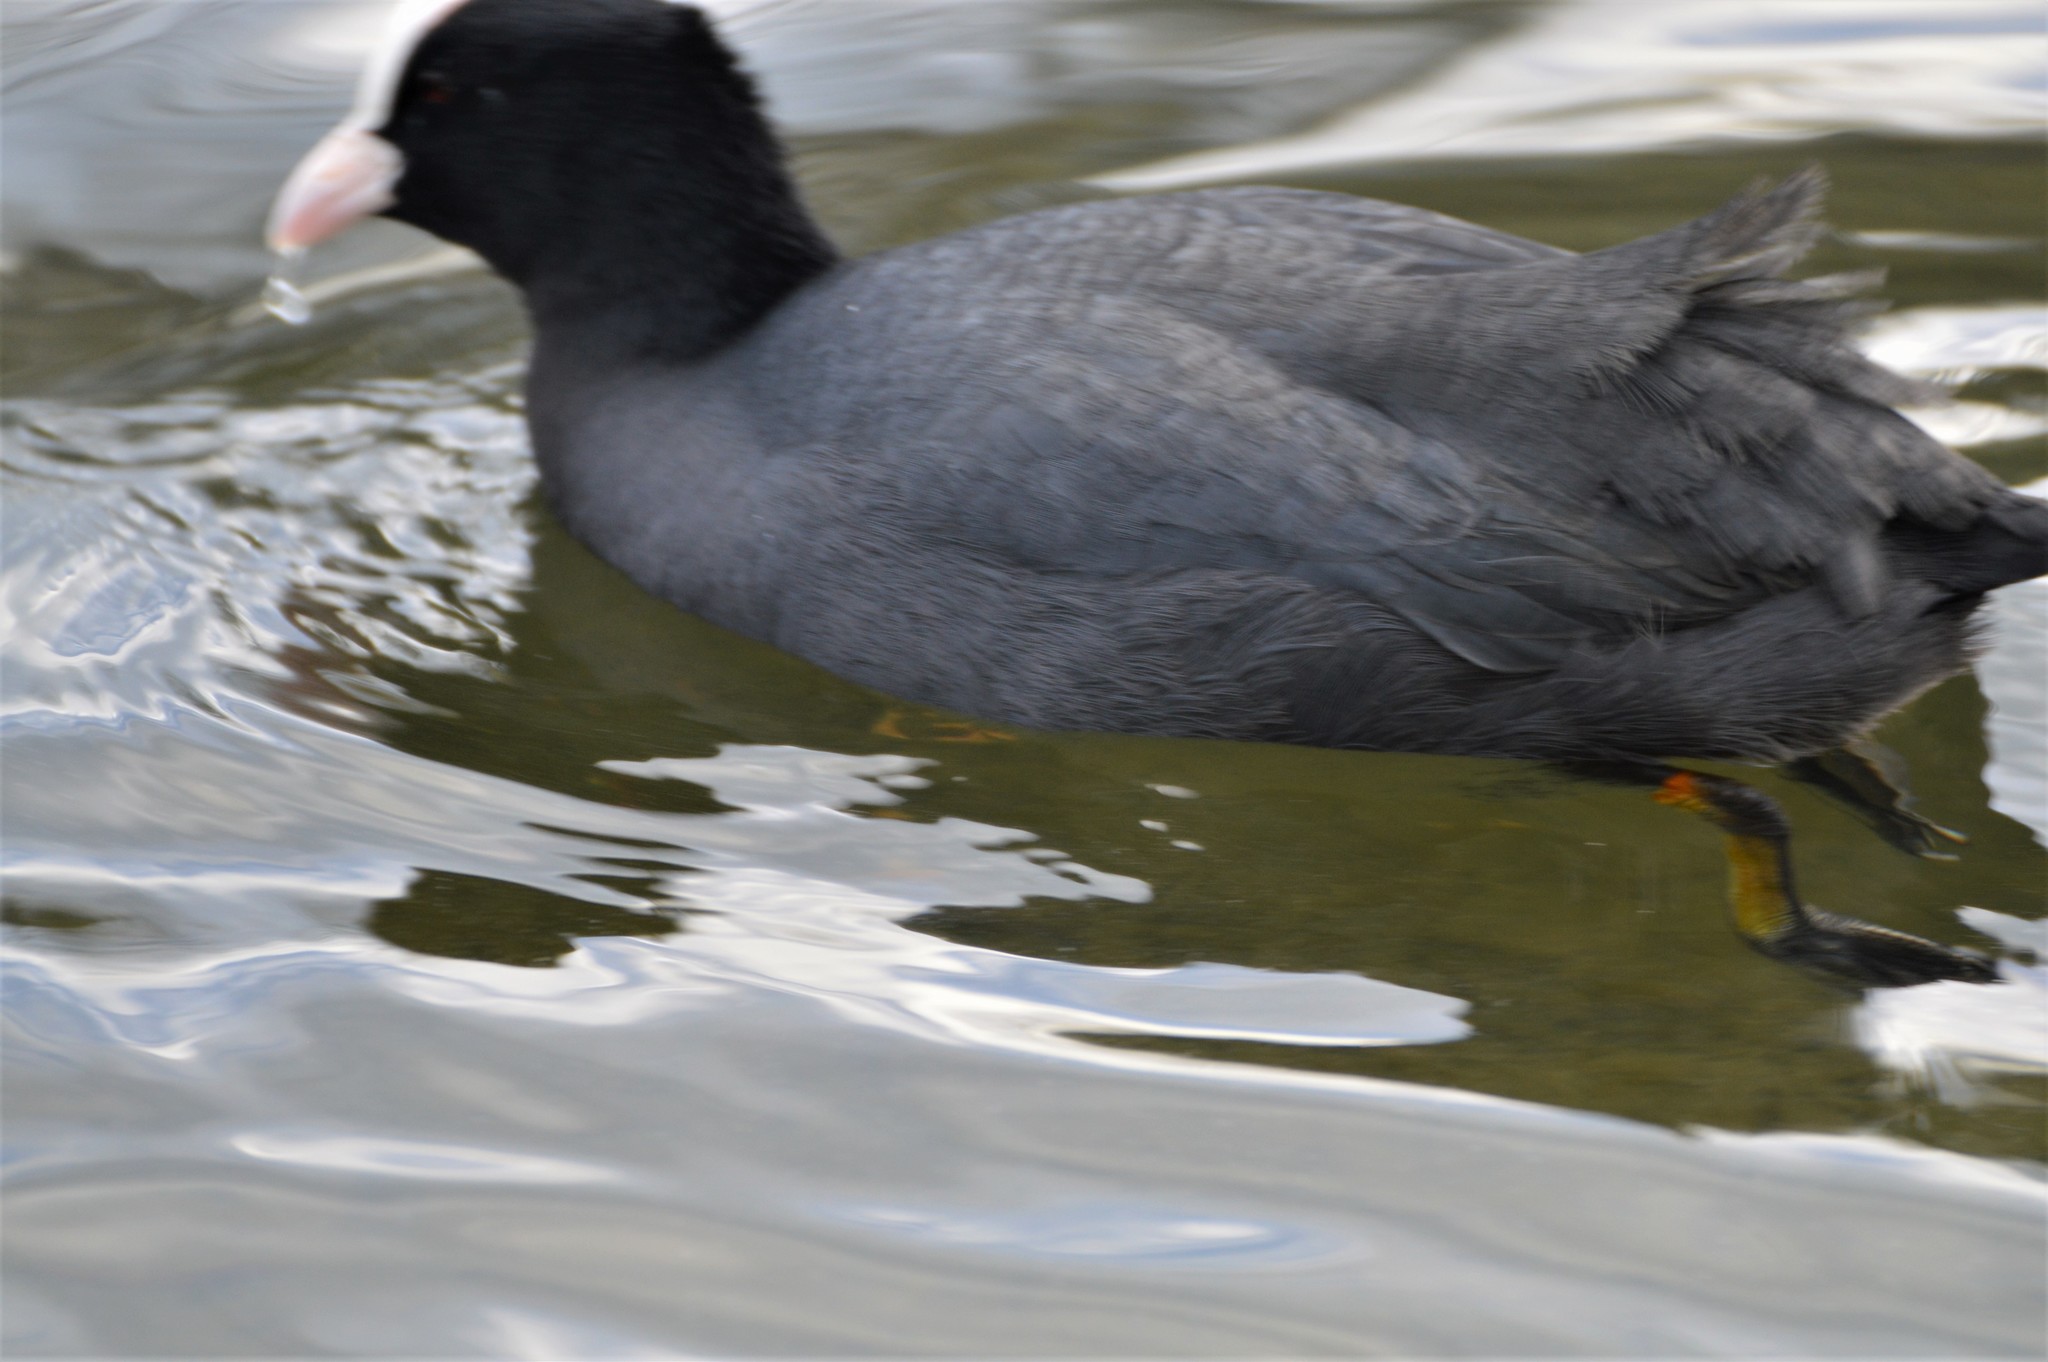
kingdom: Animalia
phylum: Chordata
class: Aves
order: Gruiformes
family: Rallidae
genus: Fulica
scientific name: Fulica atra
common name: Eurasian coot
